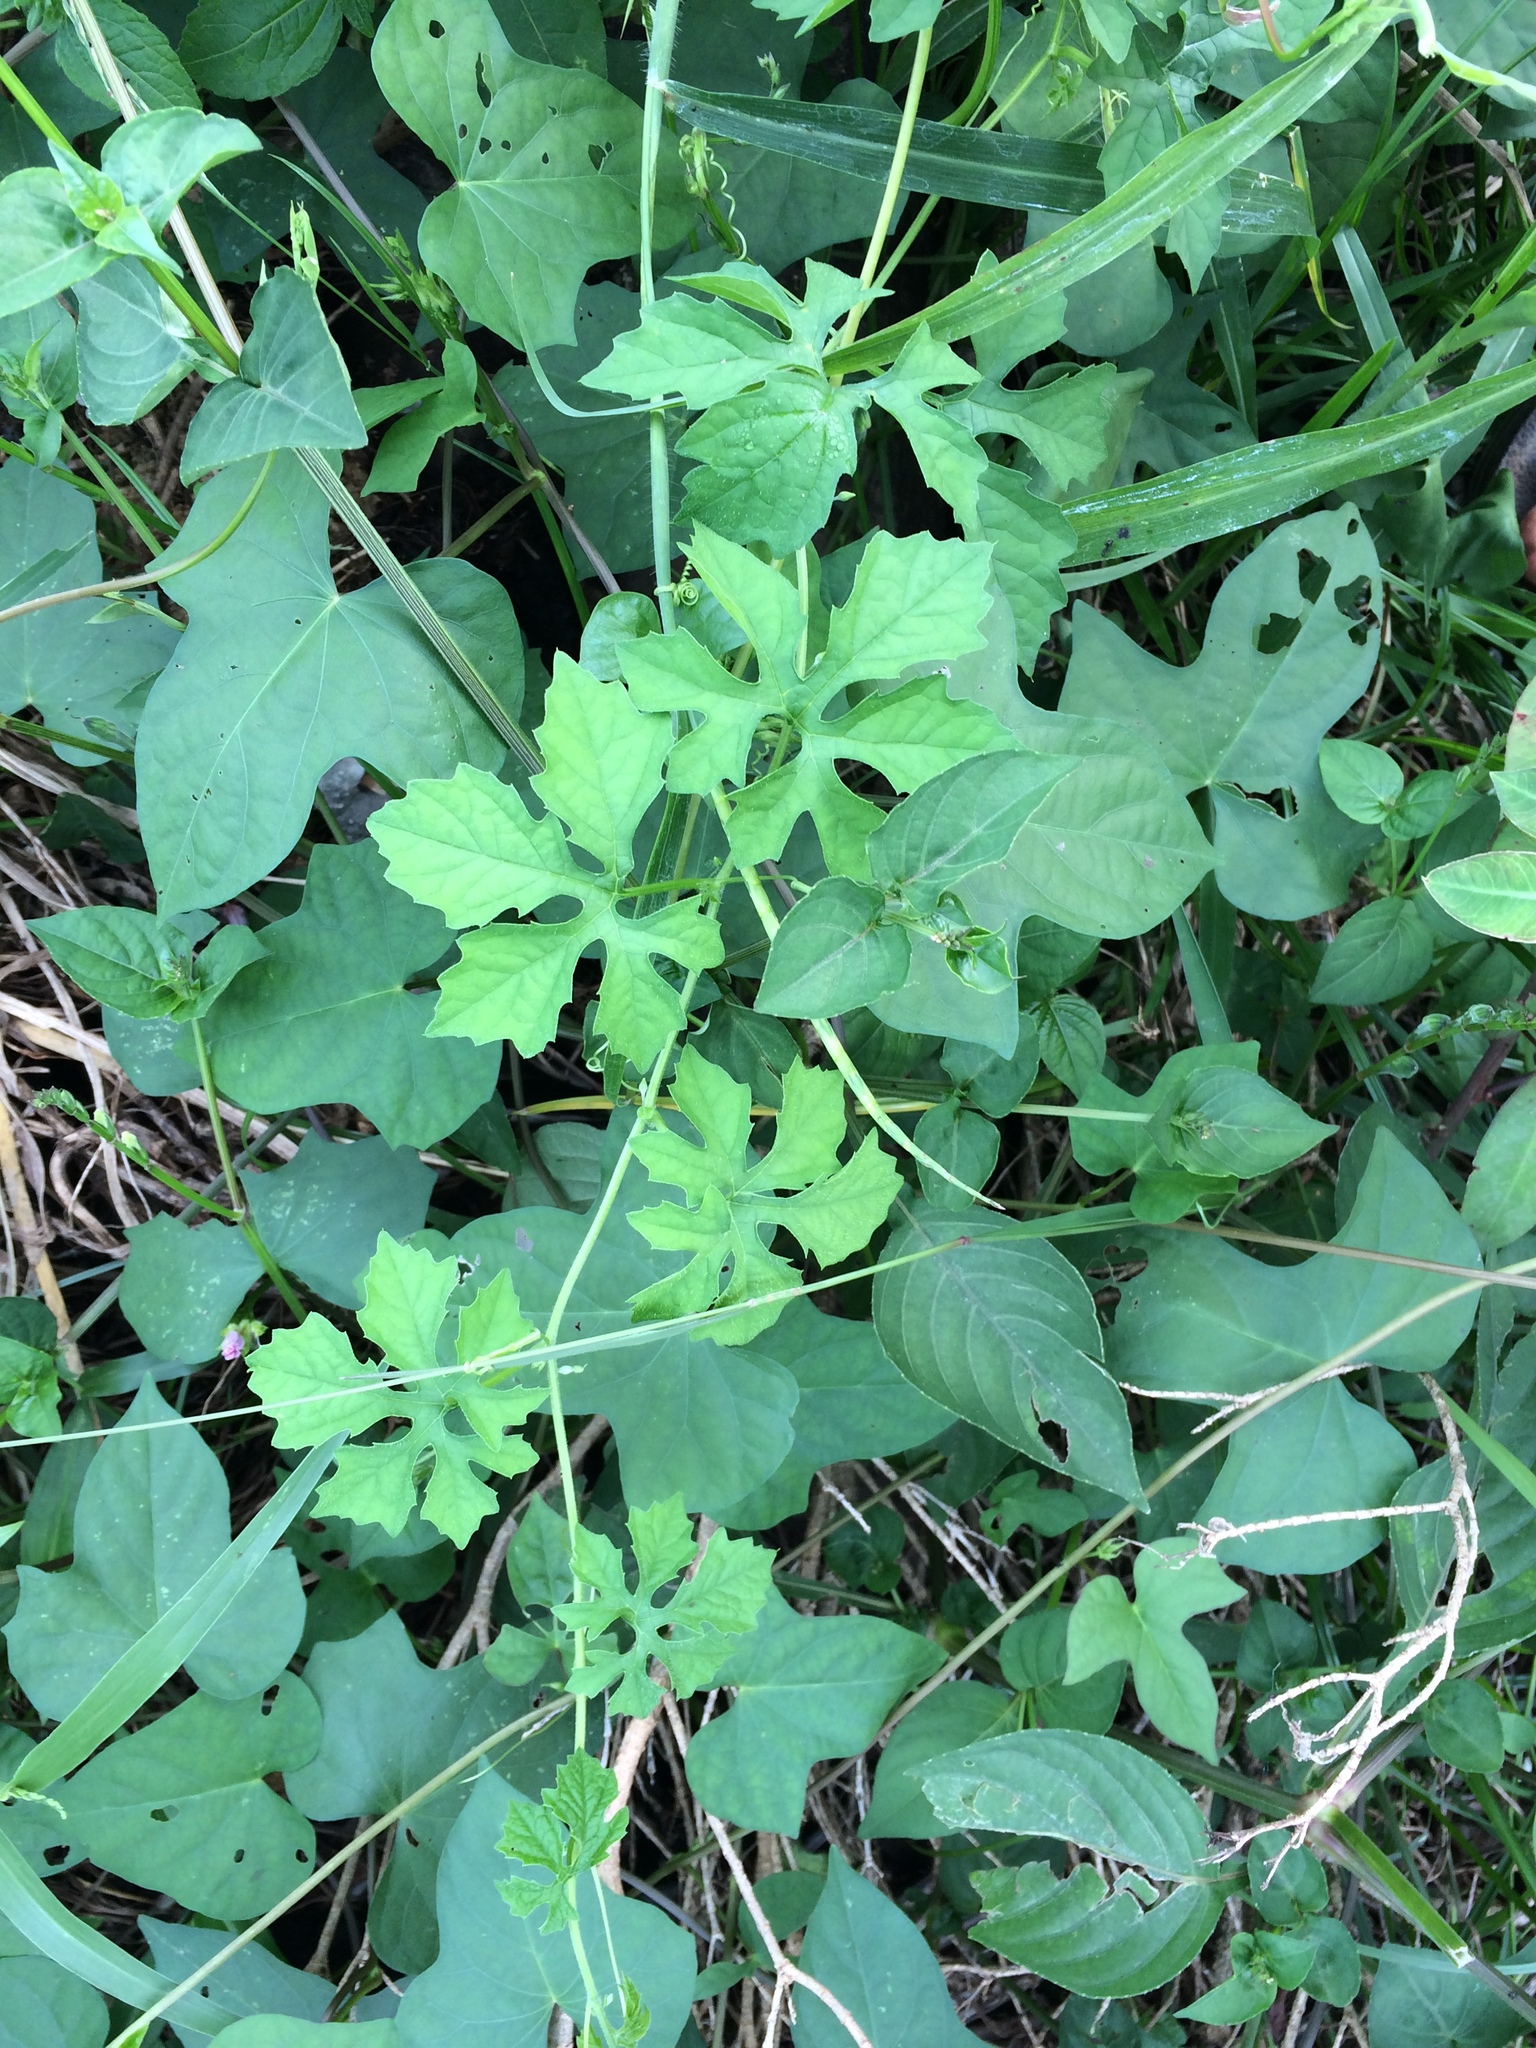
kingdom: Plantae
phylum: Tracheophyta
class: Magnoliopsida
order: Cucurbitales
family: Cucurbitaceae
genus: Momordica
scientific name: Momordica charantia
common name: Balsampear
